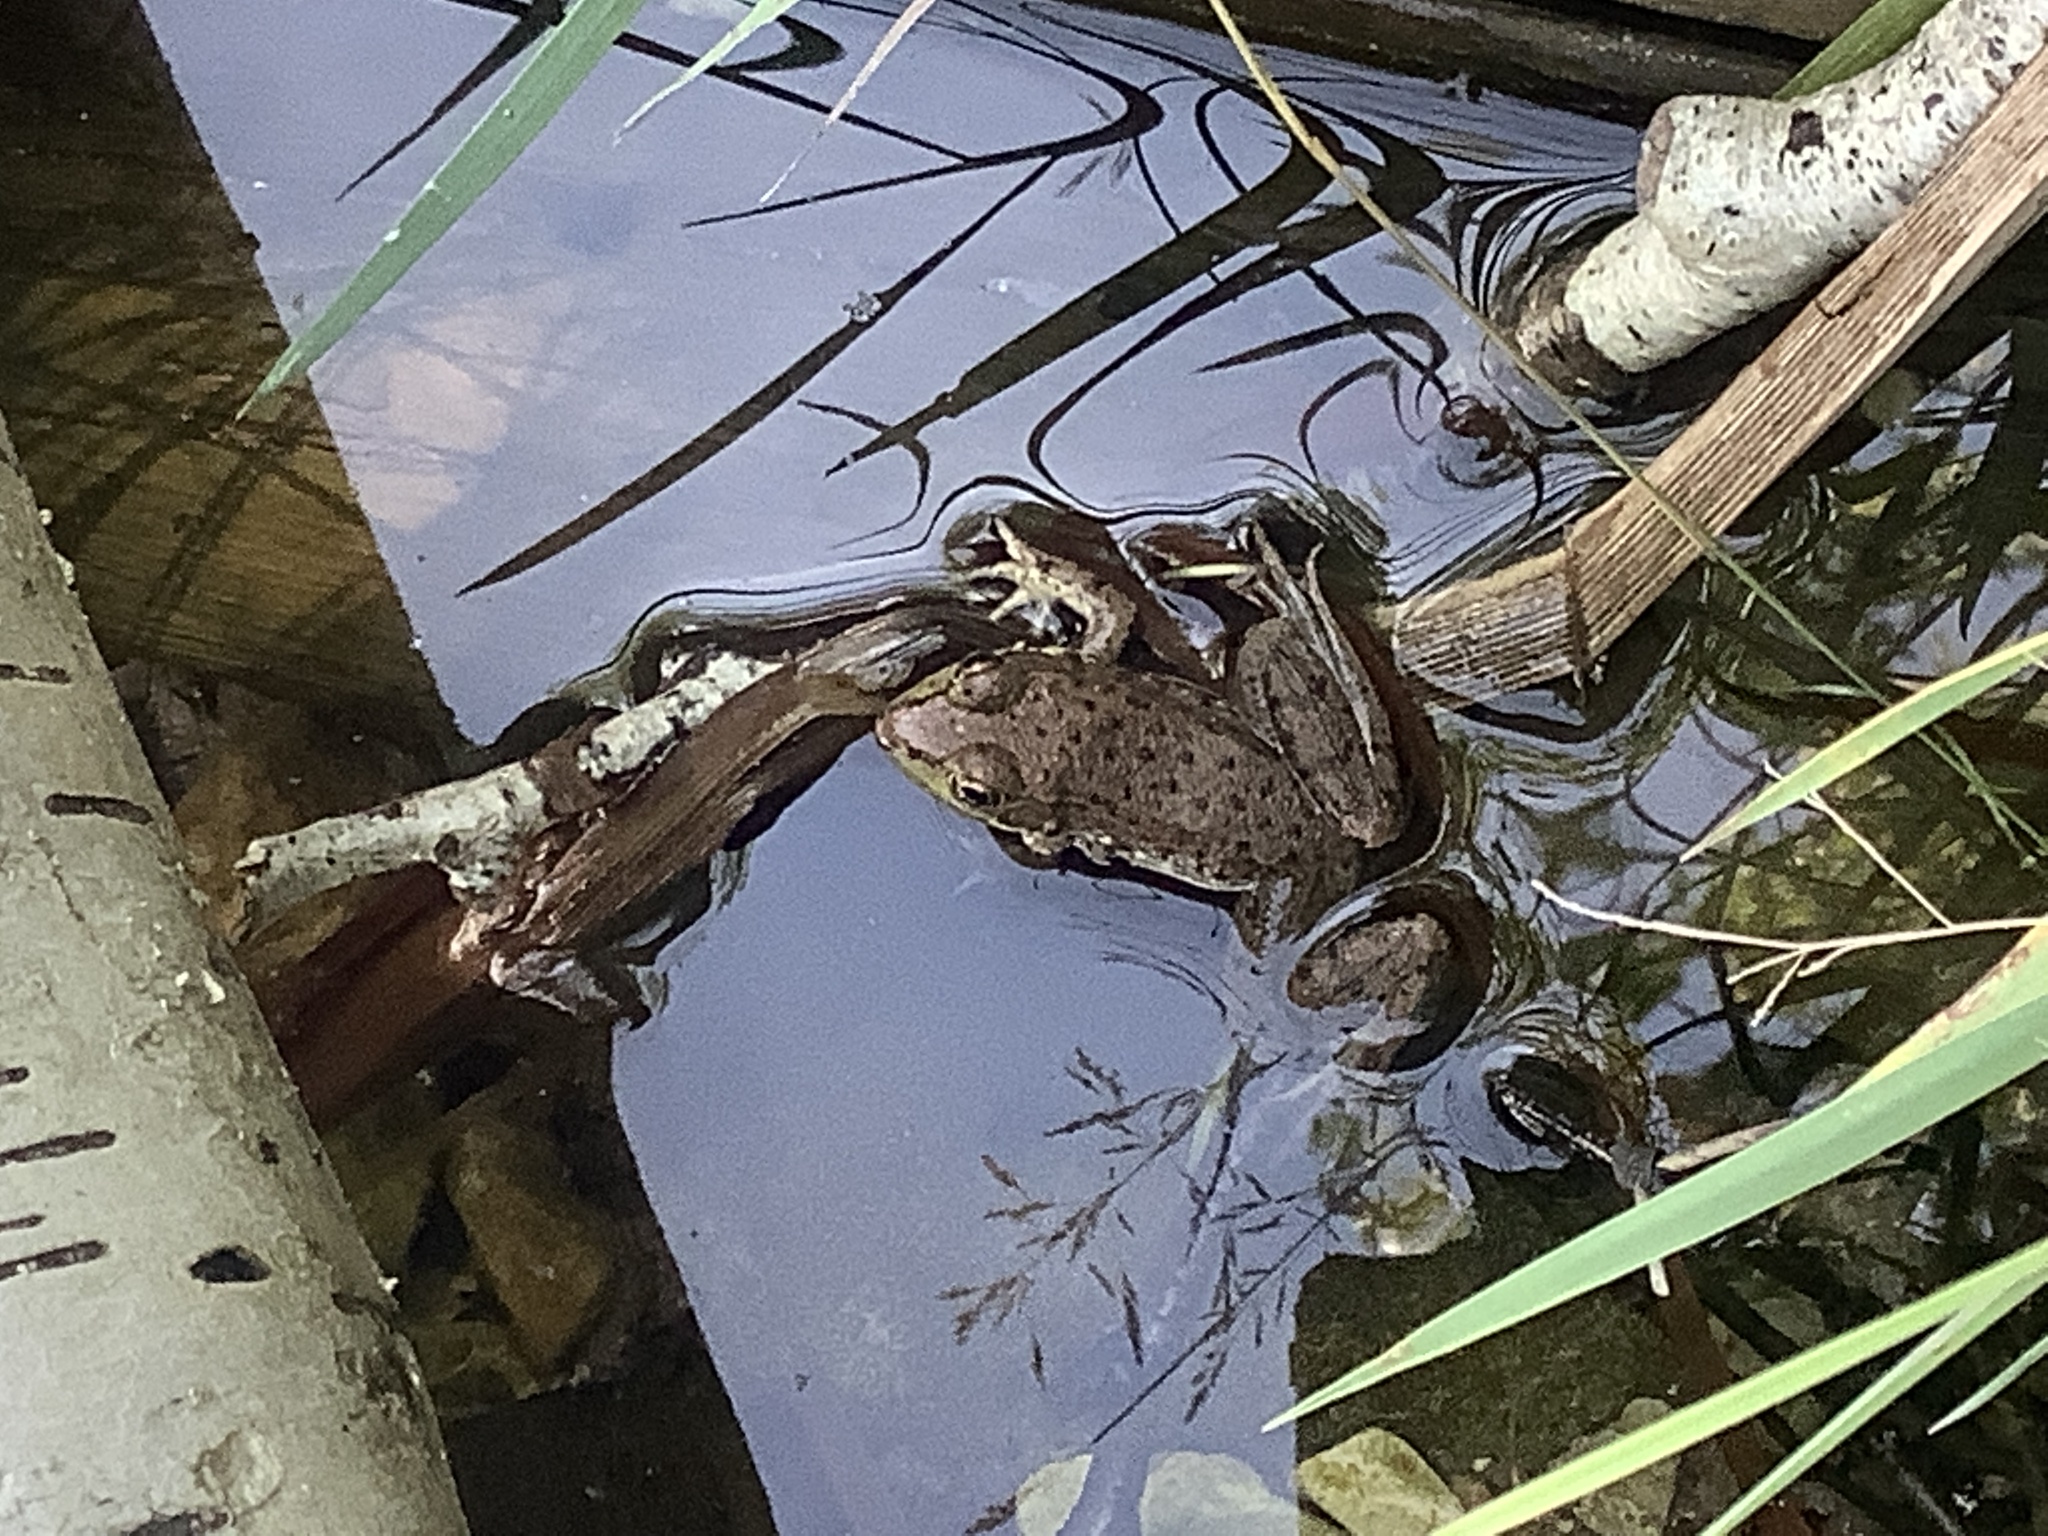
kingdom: Animalia
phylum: Chordata
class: Amphibia
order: Anura
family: Ranidae
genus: Lithobates
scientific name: Lithobates clamitans
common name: Green frog
